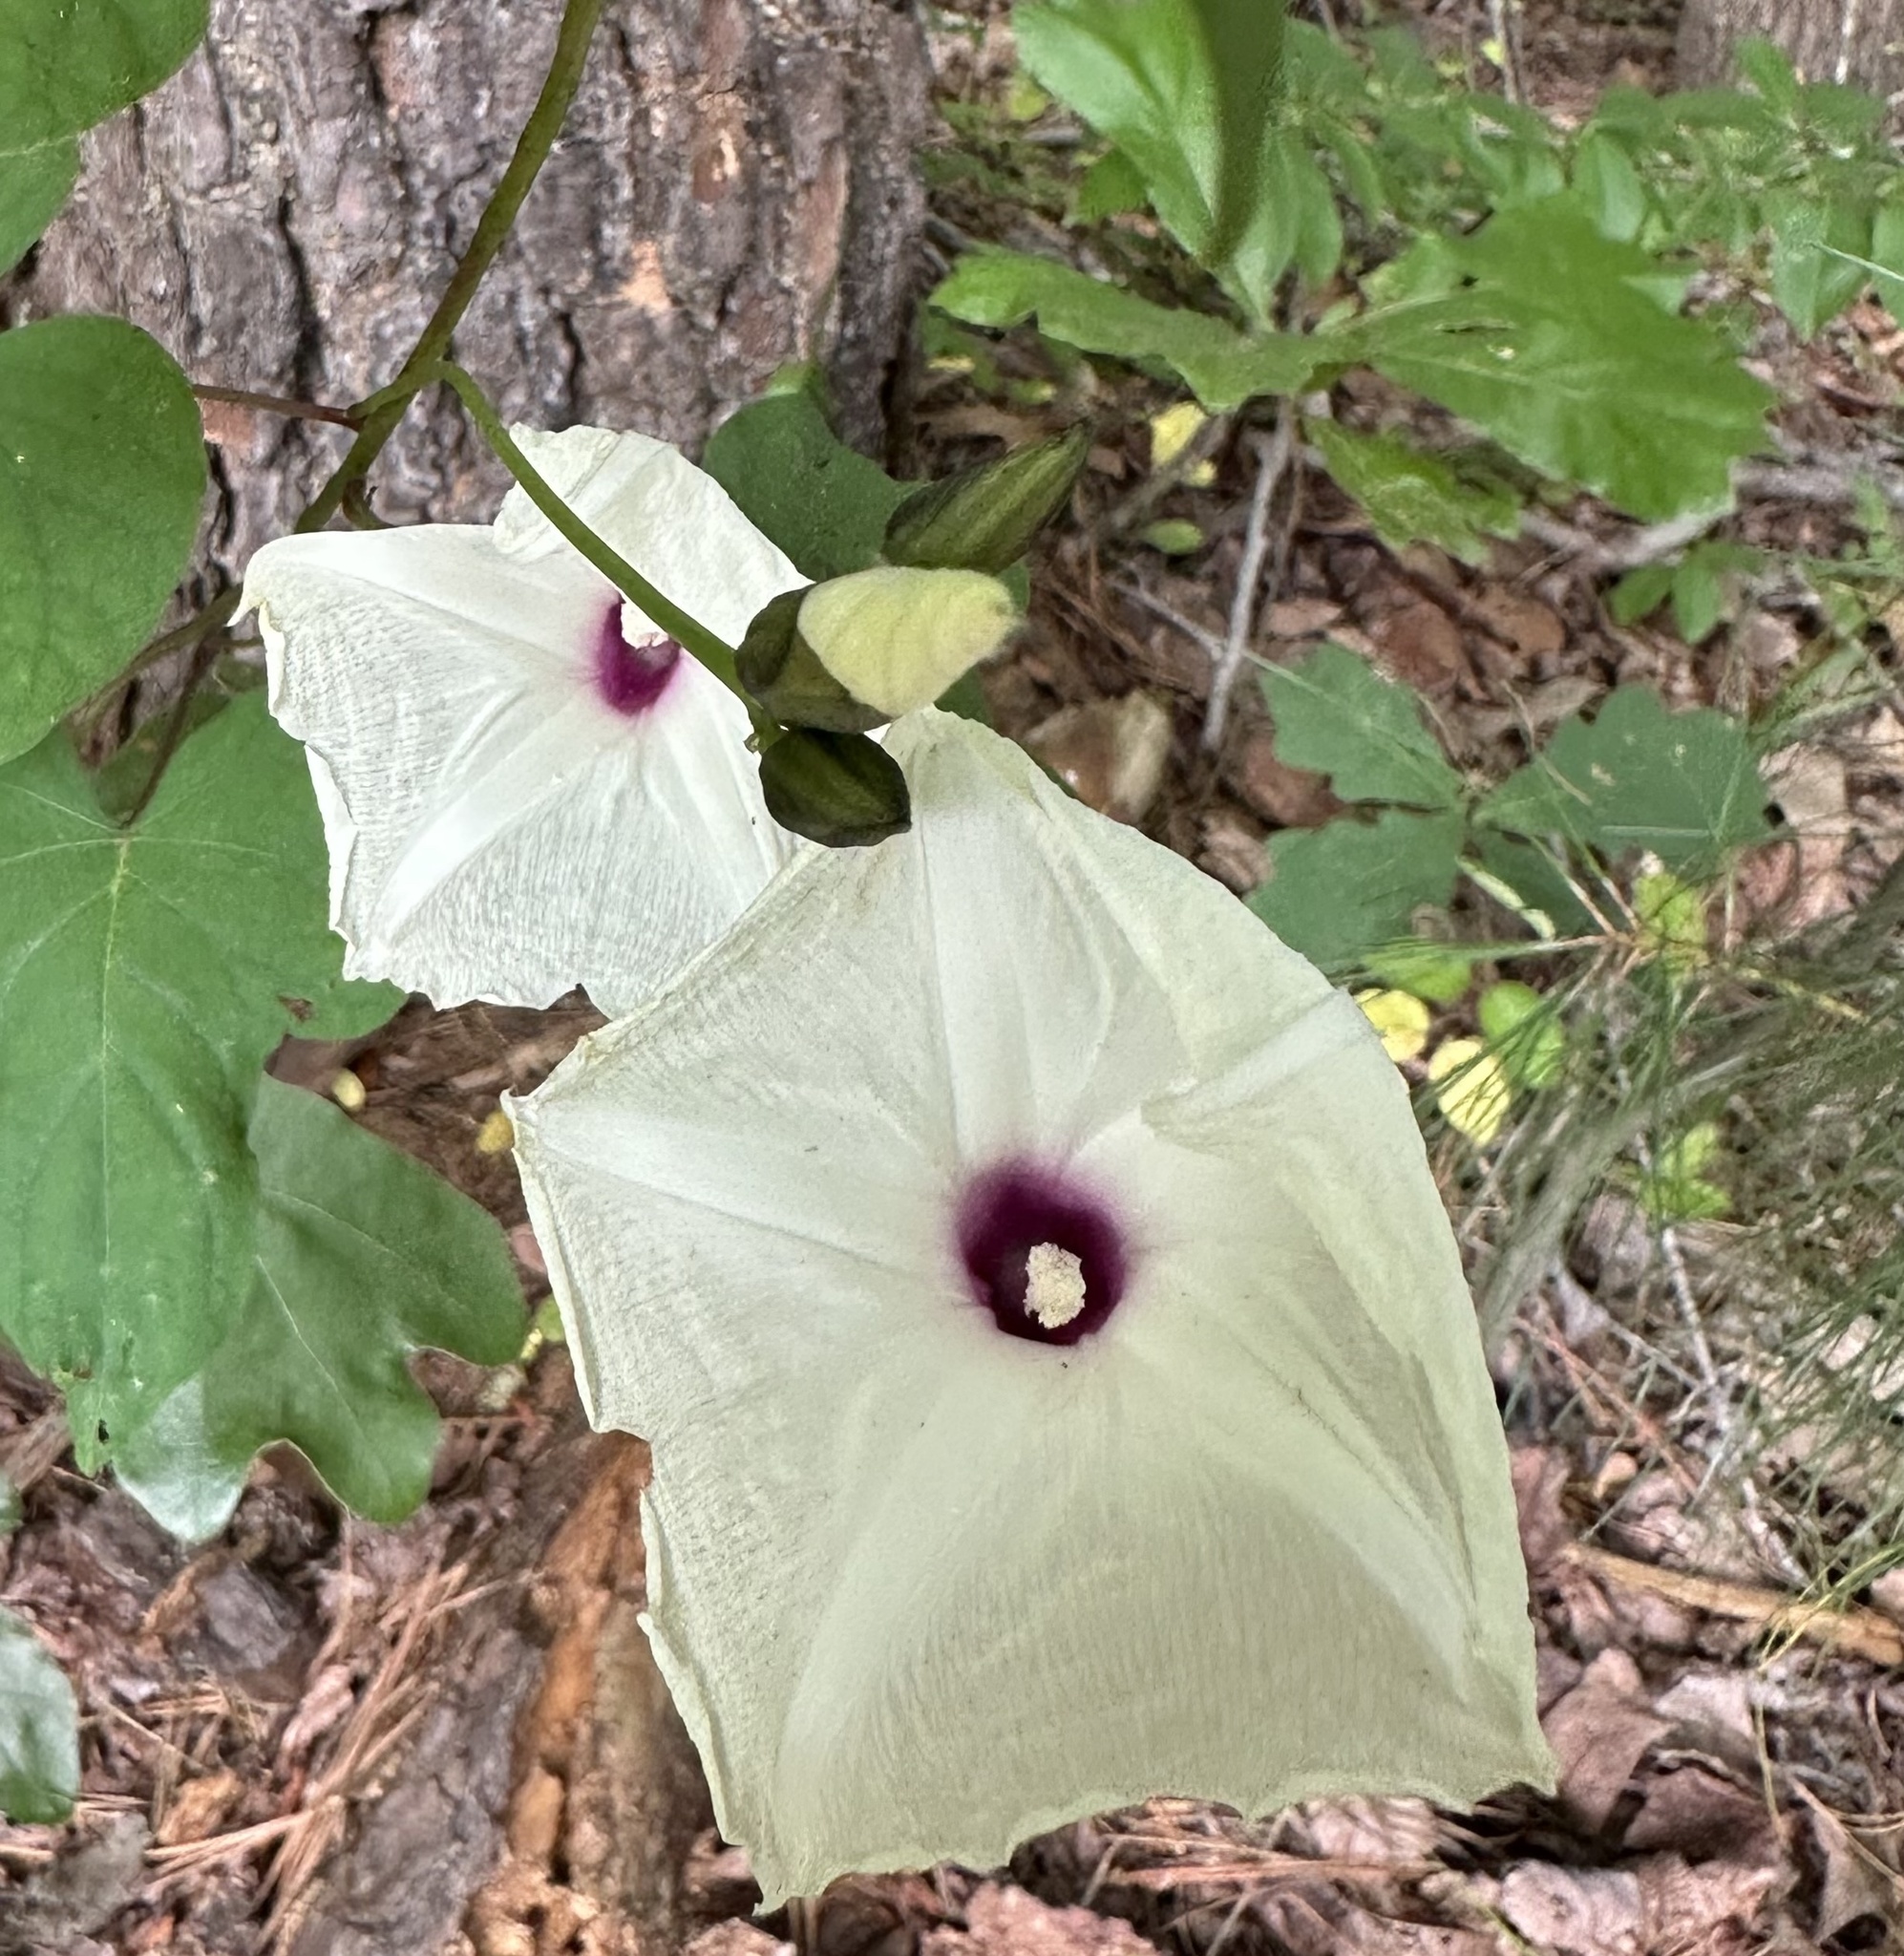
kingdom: Plantae
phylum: Tracheophyta
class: Magnoliopsida
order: Solanales
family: Convolvulaceae
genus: Ipomoea
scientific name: Ipomoea pandurata
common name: Man-of-the-earth
